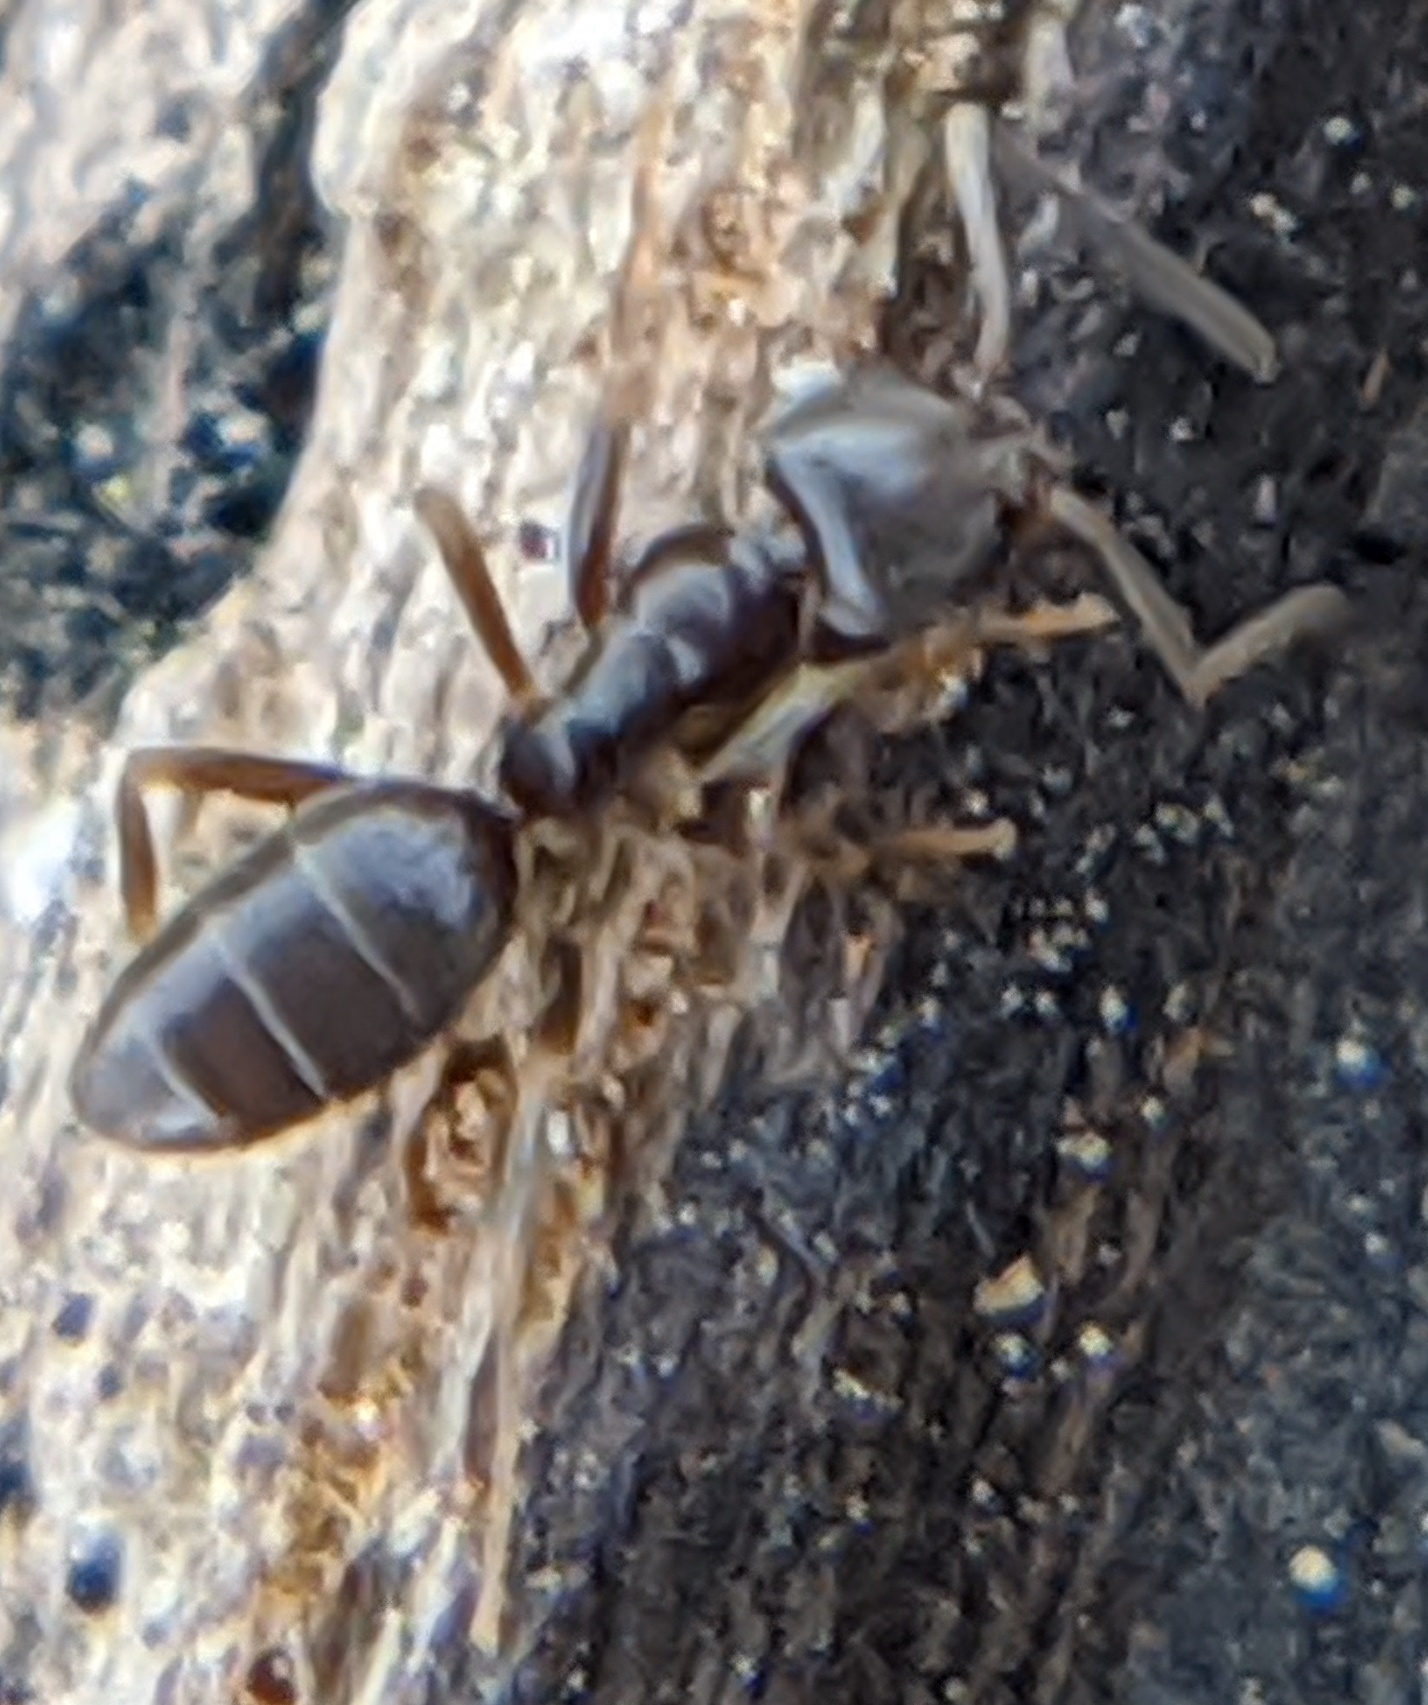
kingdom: Animalia
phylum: Arthropoda
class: Insecta
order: Hymenoptera
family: Formicidae
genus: Tapinoma
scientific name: Tapinoma sessile
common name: Odorous house ant
